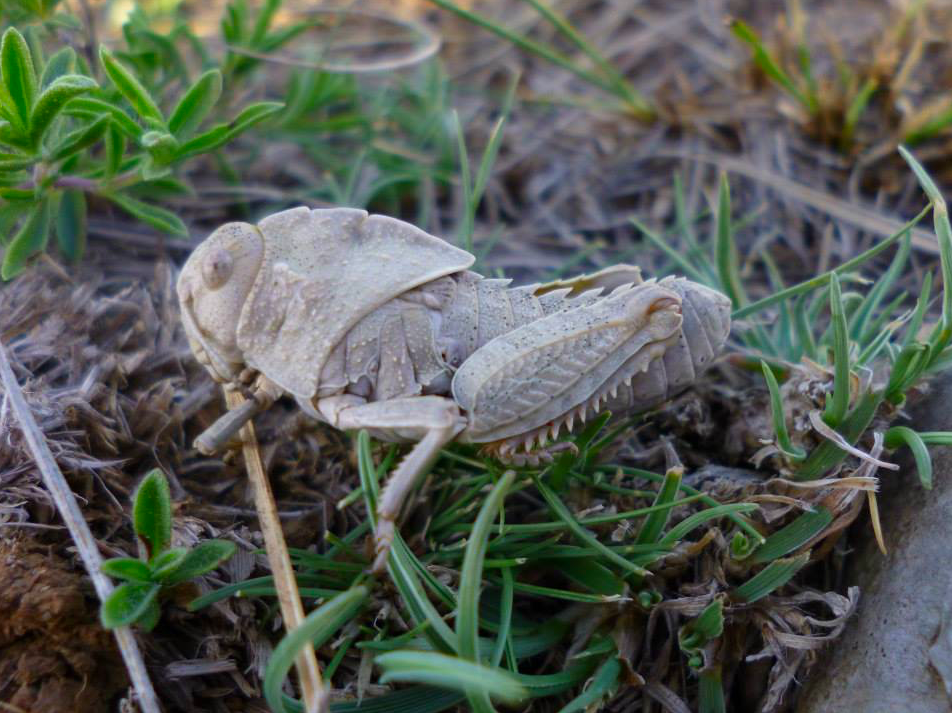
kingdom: Animalia
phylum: Arthropoda
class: Insecta
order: Orthoptera
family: Pamphagidae
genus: Prionotropis
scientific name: Prionotropis hystrix
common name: Eastern stone grasshopper
